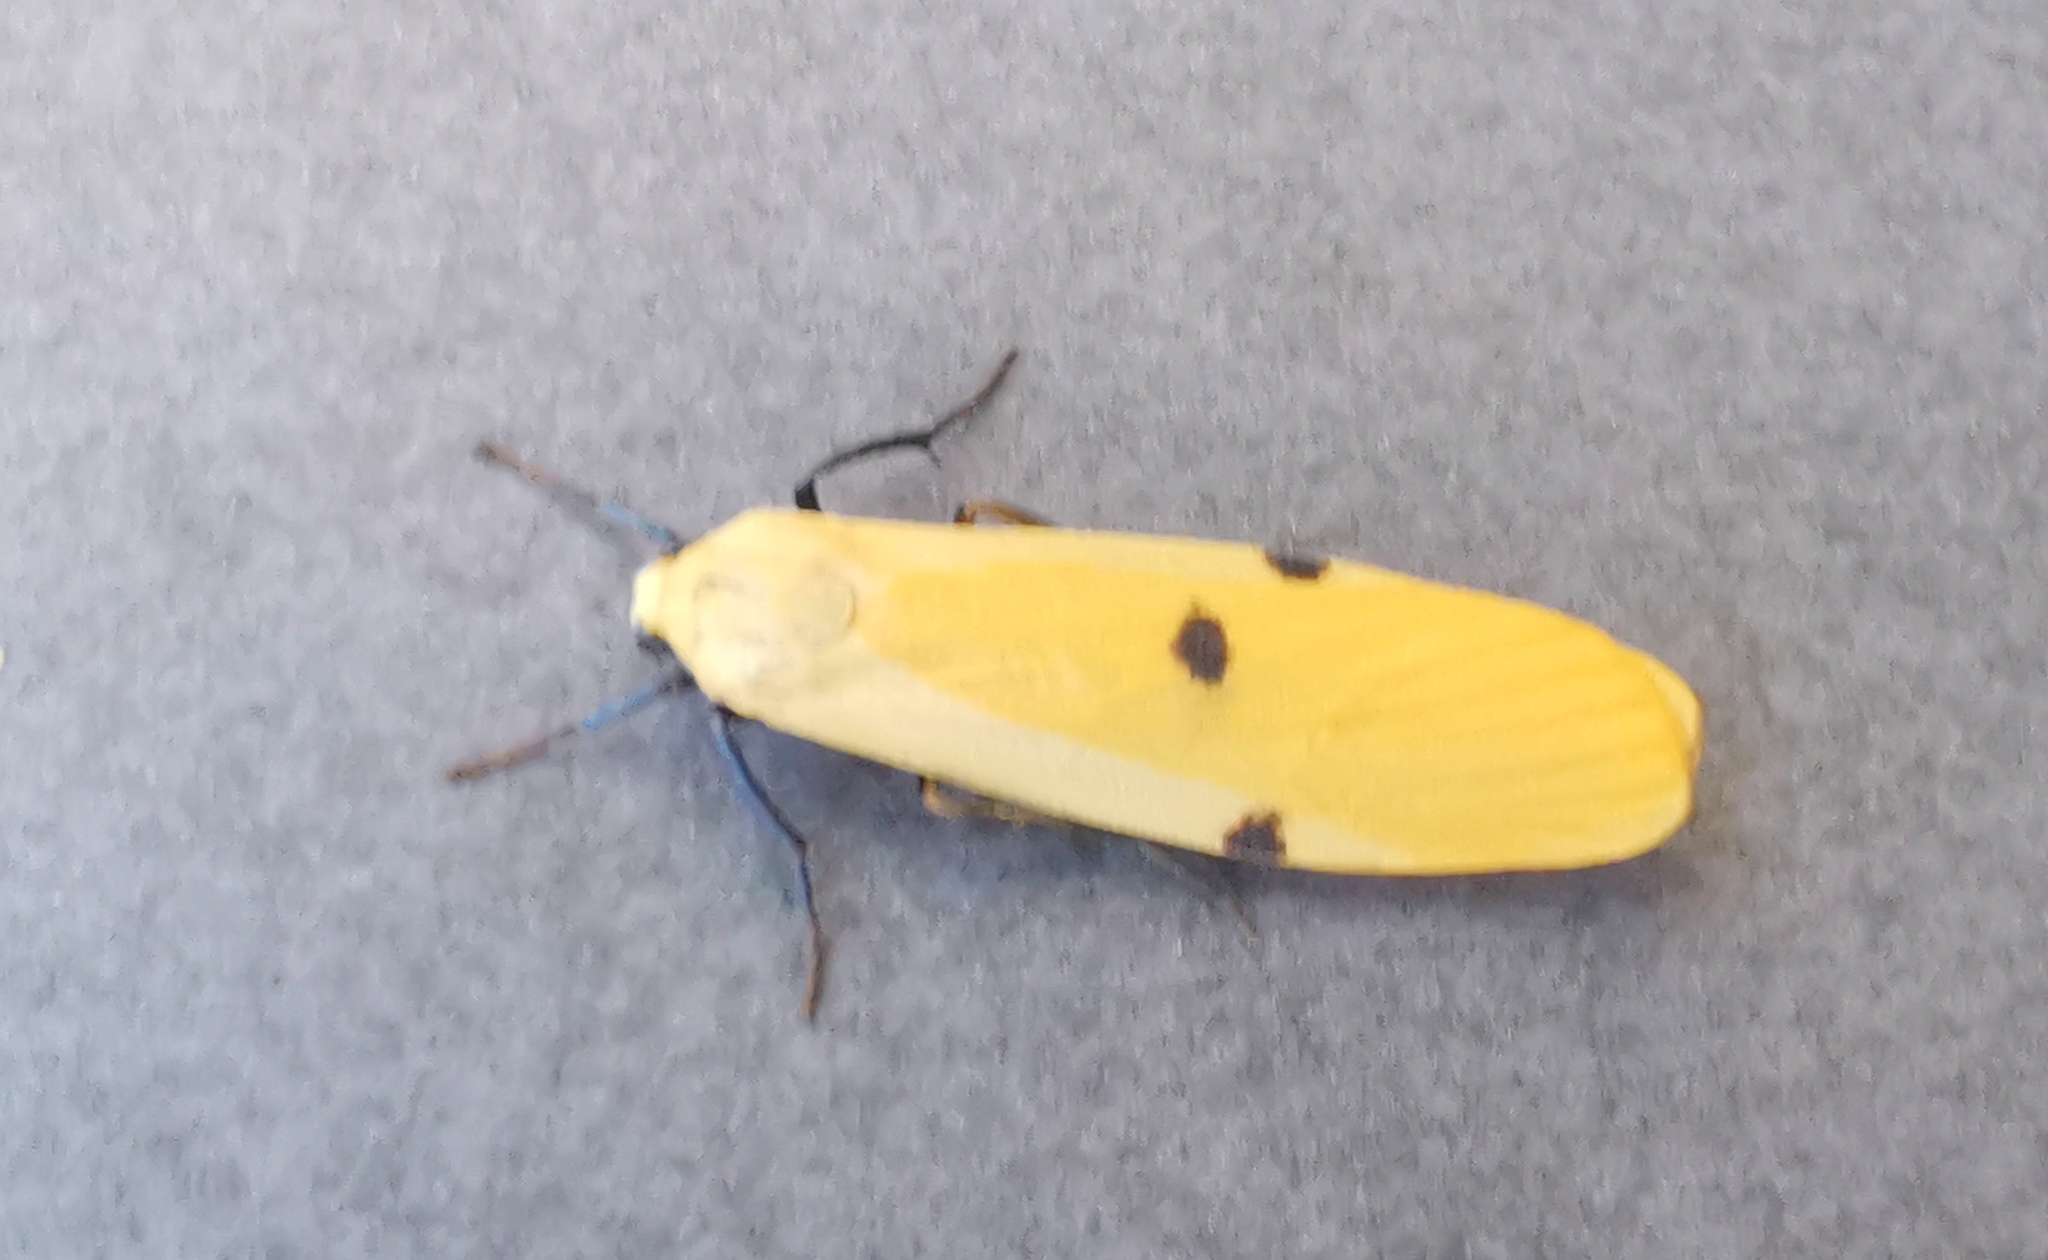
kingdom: Animalia
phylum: Arthropoda
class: Insecta
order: Lepidoptera
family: Erebidae
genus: Lithosia
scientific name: Lithosia quadra
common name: Four-spotted footman
